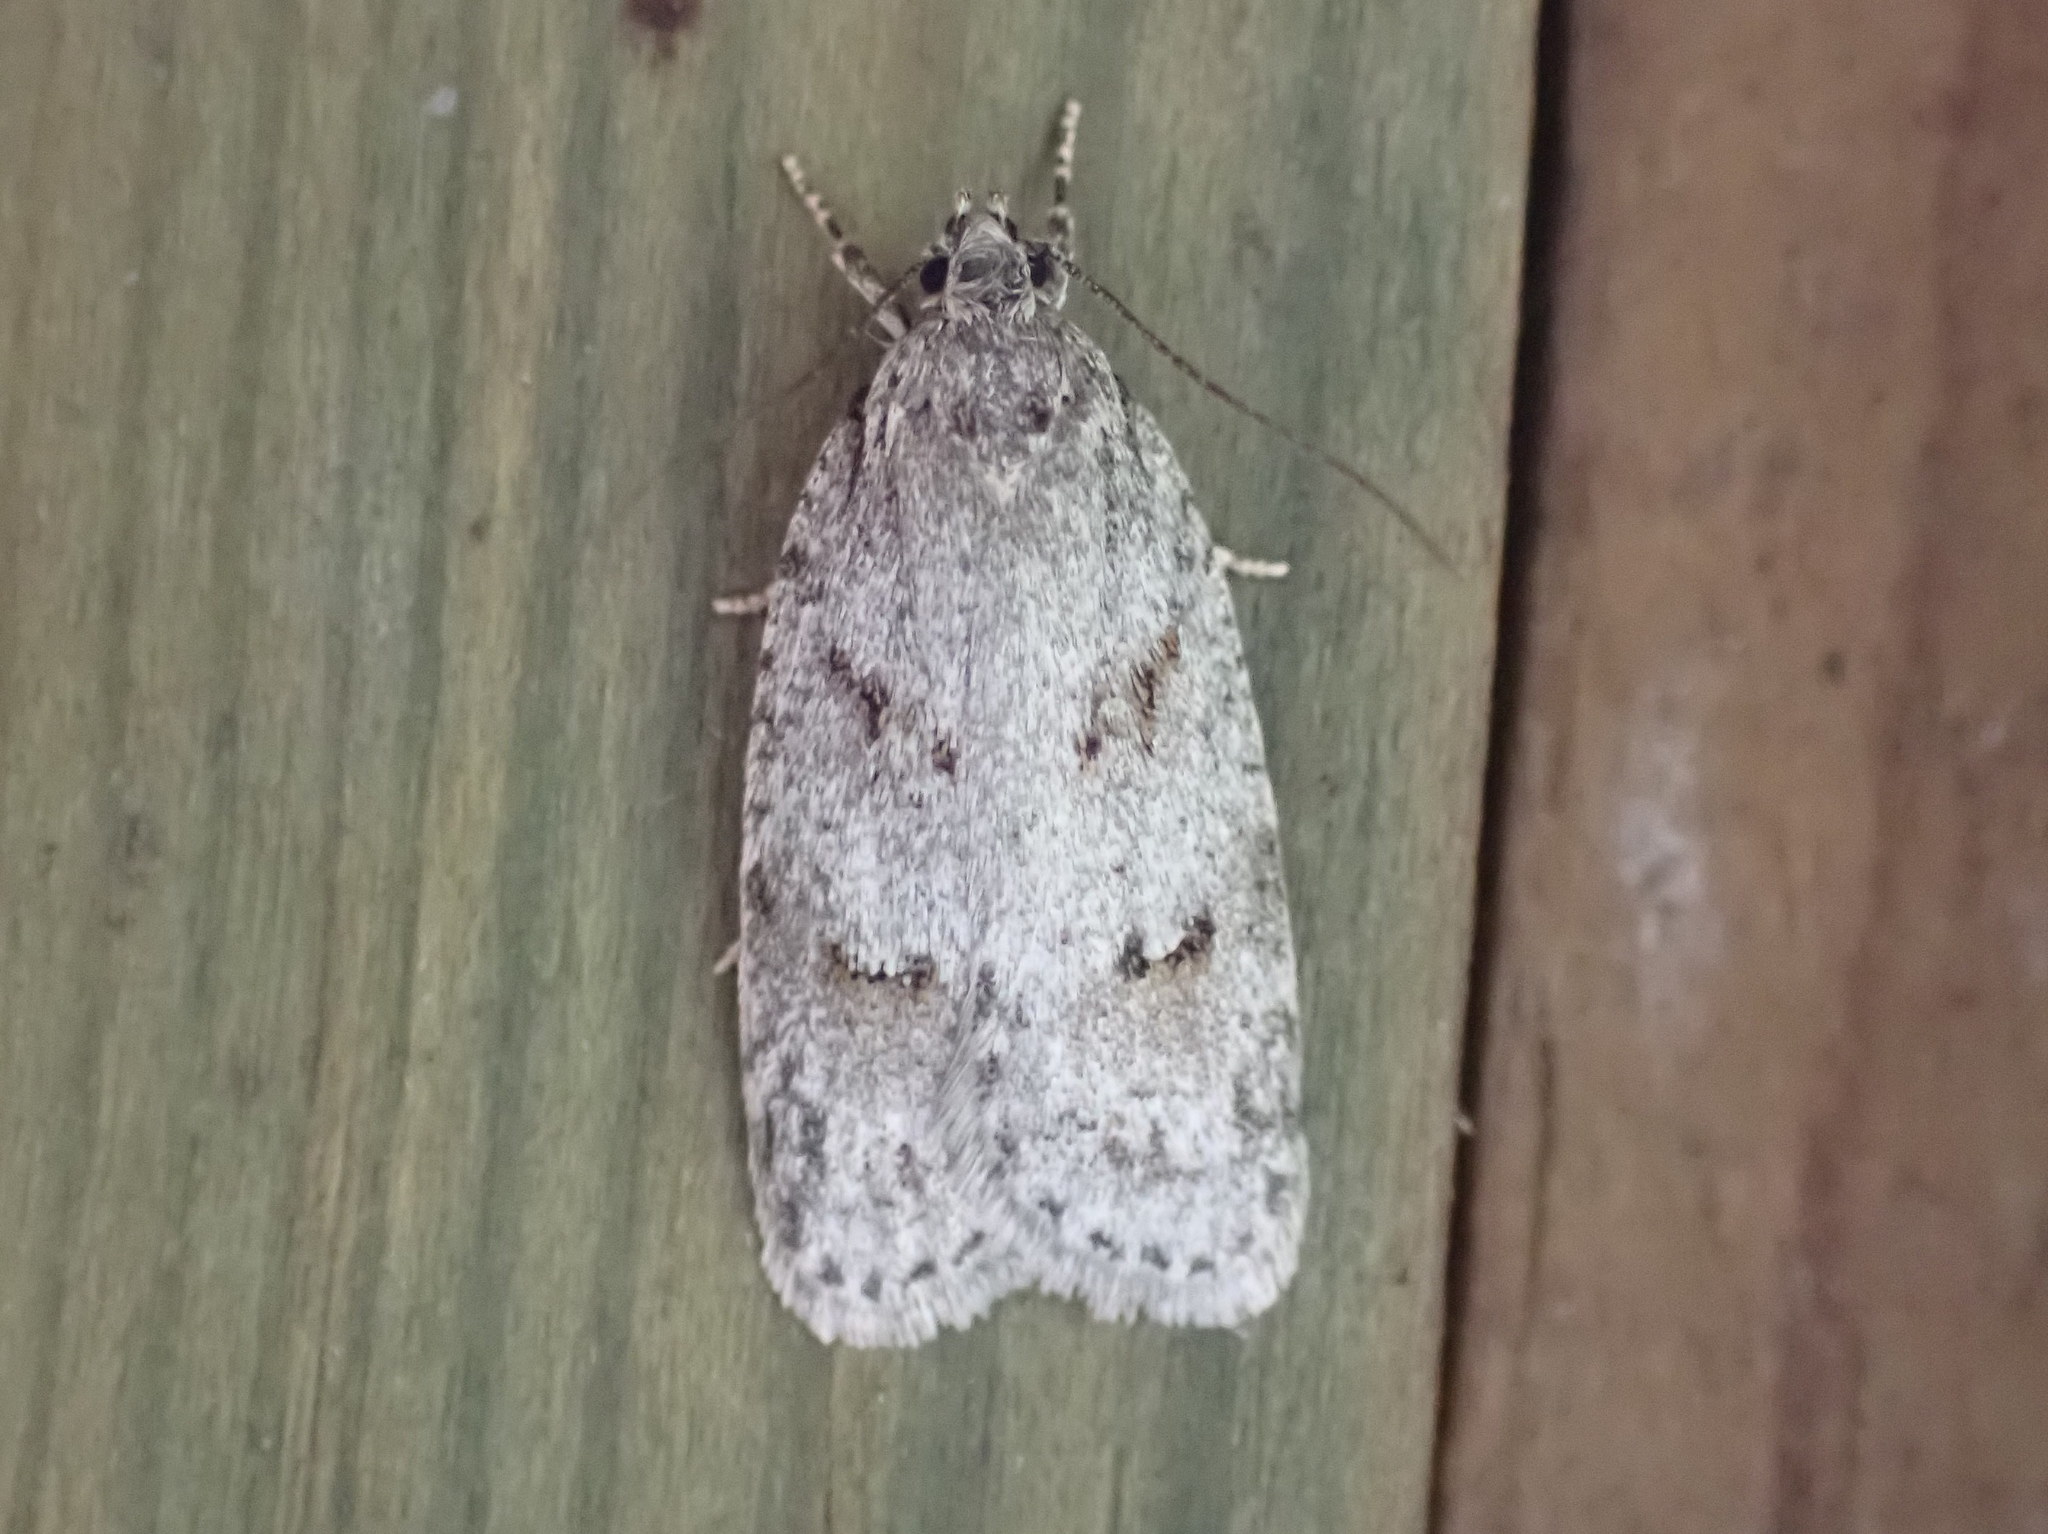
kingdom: Animalia
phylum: Arthropoda
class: Insecta
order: Lepidoptera
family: Depressariidae
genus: Bibarrambla
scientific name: Bibarrambla allenella
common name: Bog bibarrambla moth
